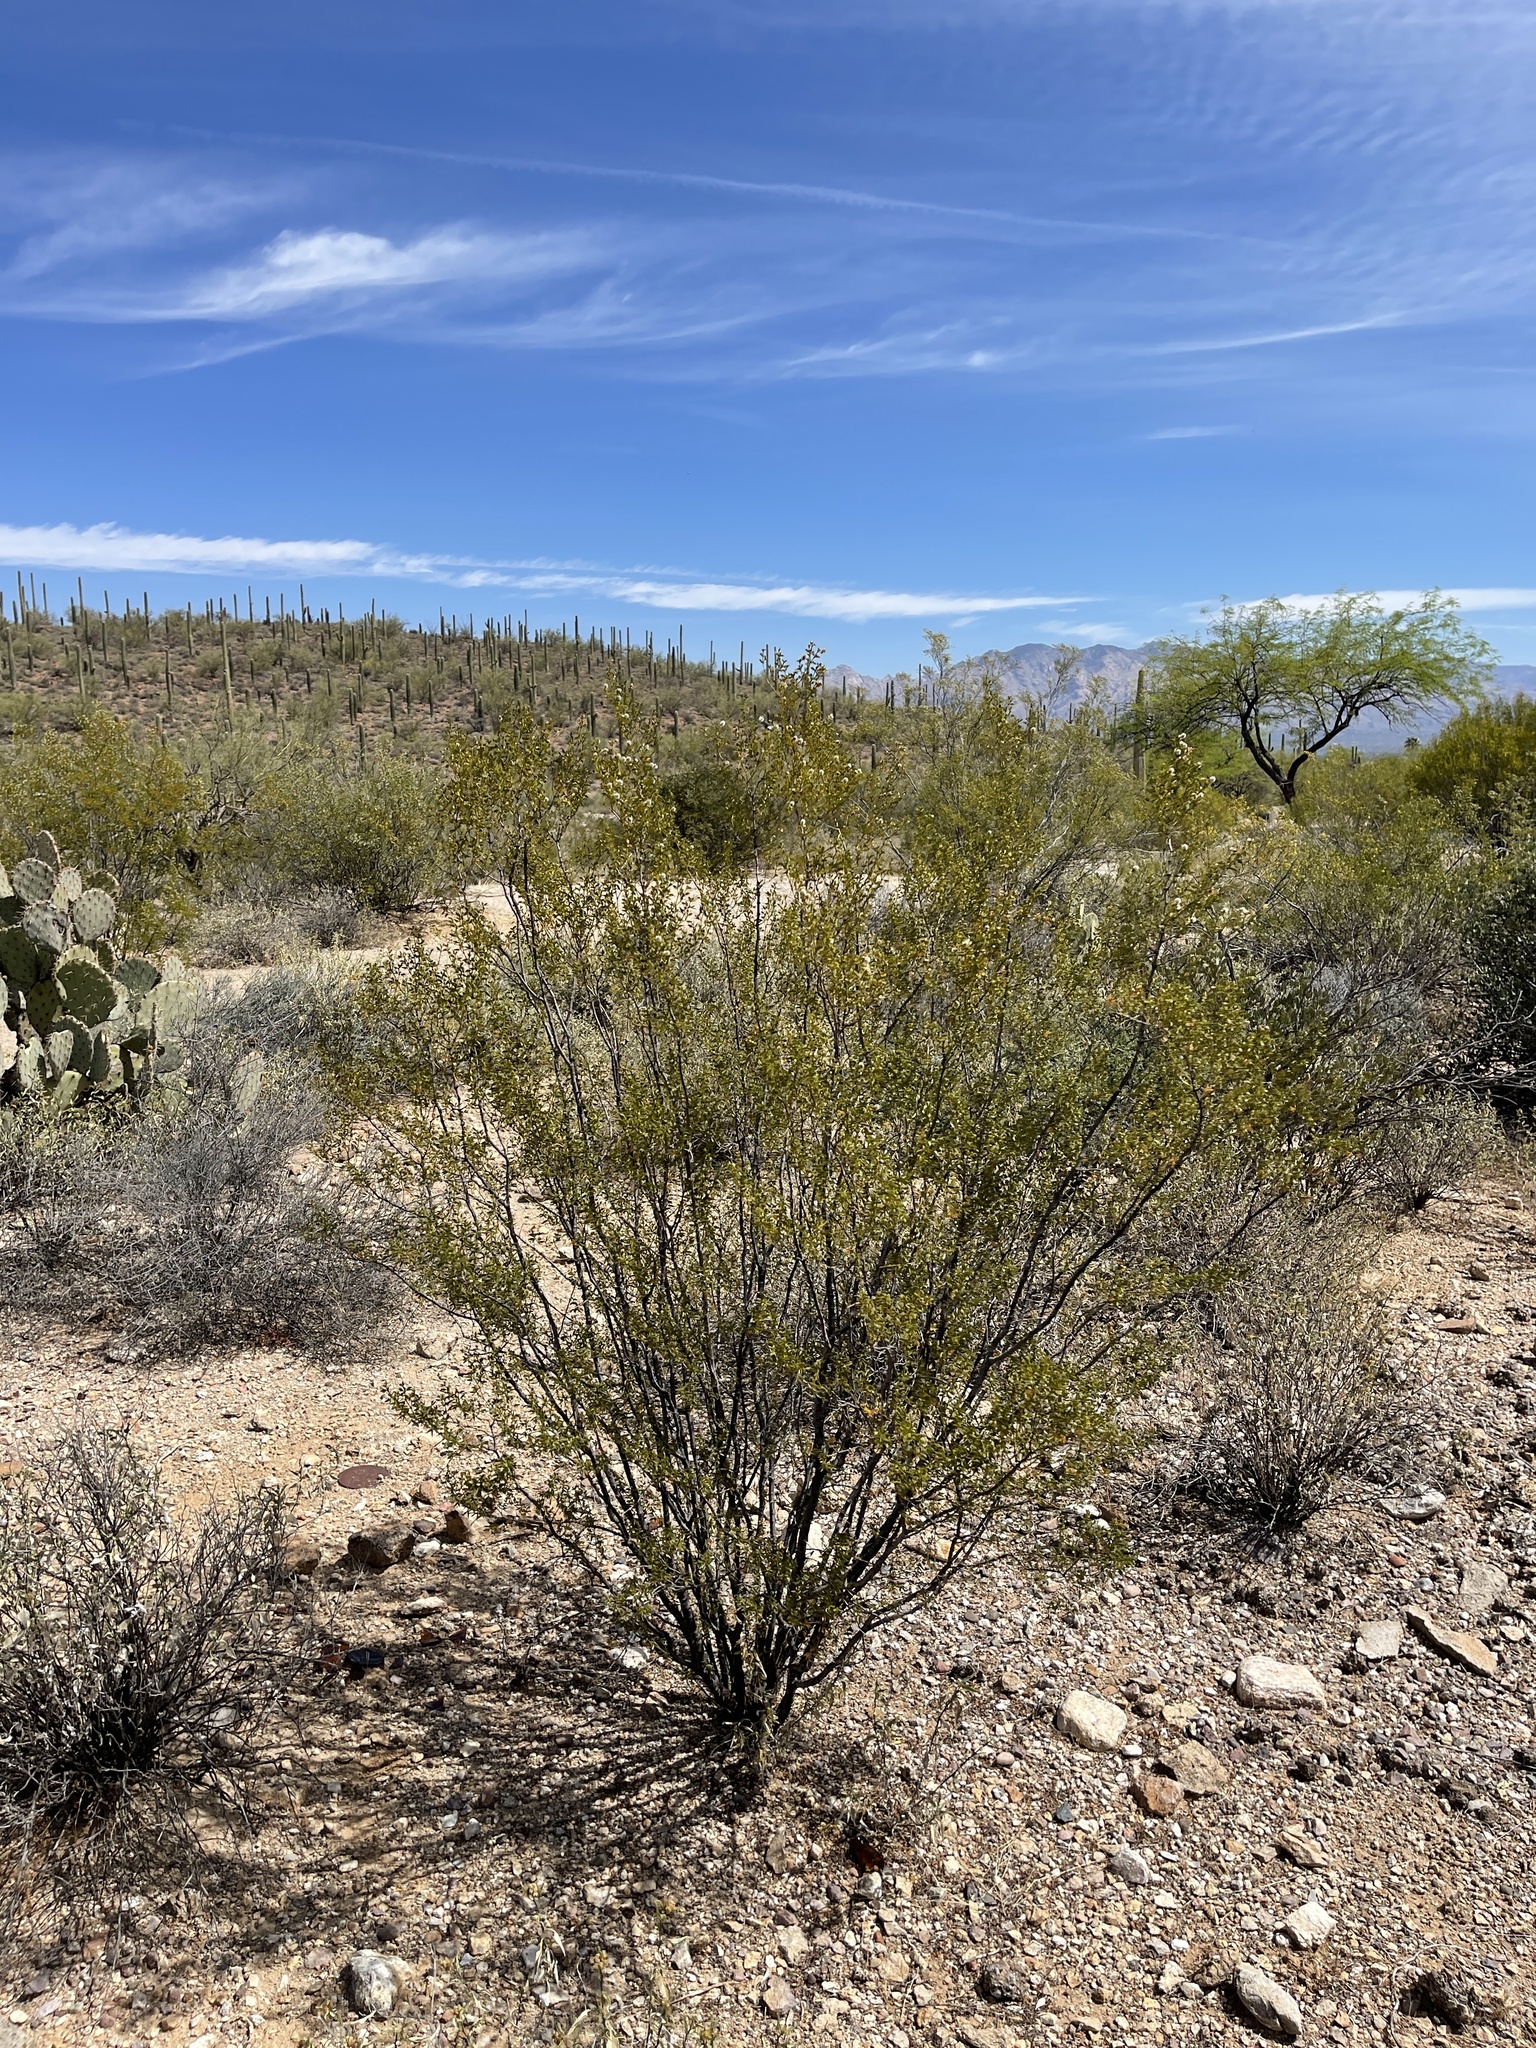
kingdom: Plantae
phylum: Tracheophyta
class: Magnoliopsida
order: Zygophyllales
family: Zygophyllaceae
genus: Larrea
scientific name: Larrea tridentata
